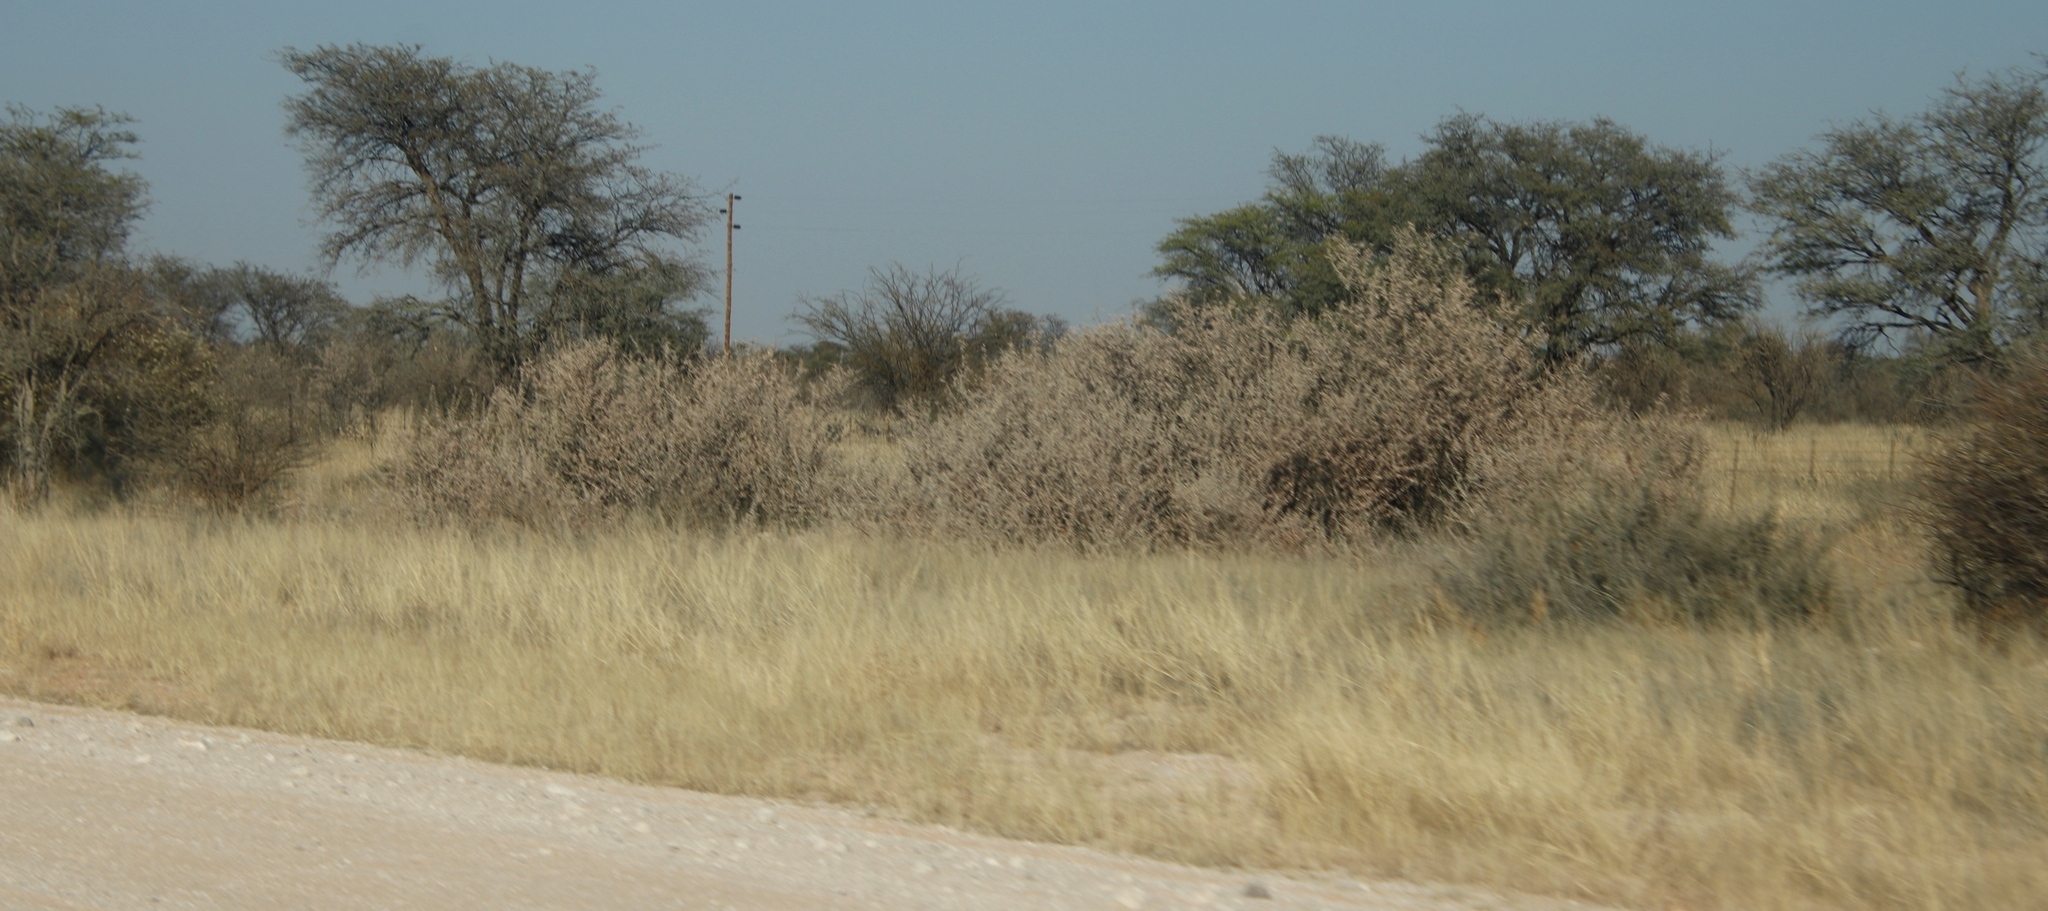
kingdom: Plantae
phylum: Tracheophyta
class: Magnoliopsida
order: Fabales
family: Fabaceae
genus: Senegalia
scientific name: Senegalia mellifera
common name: Hookthorn
